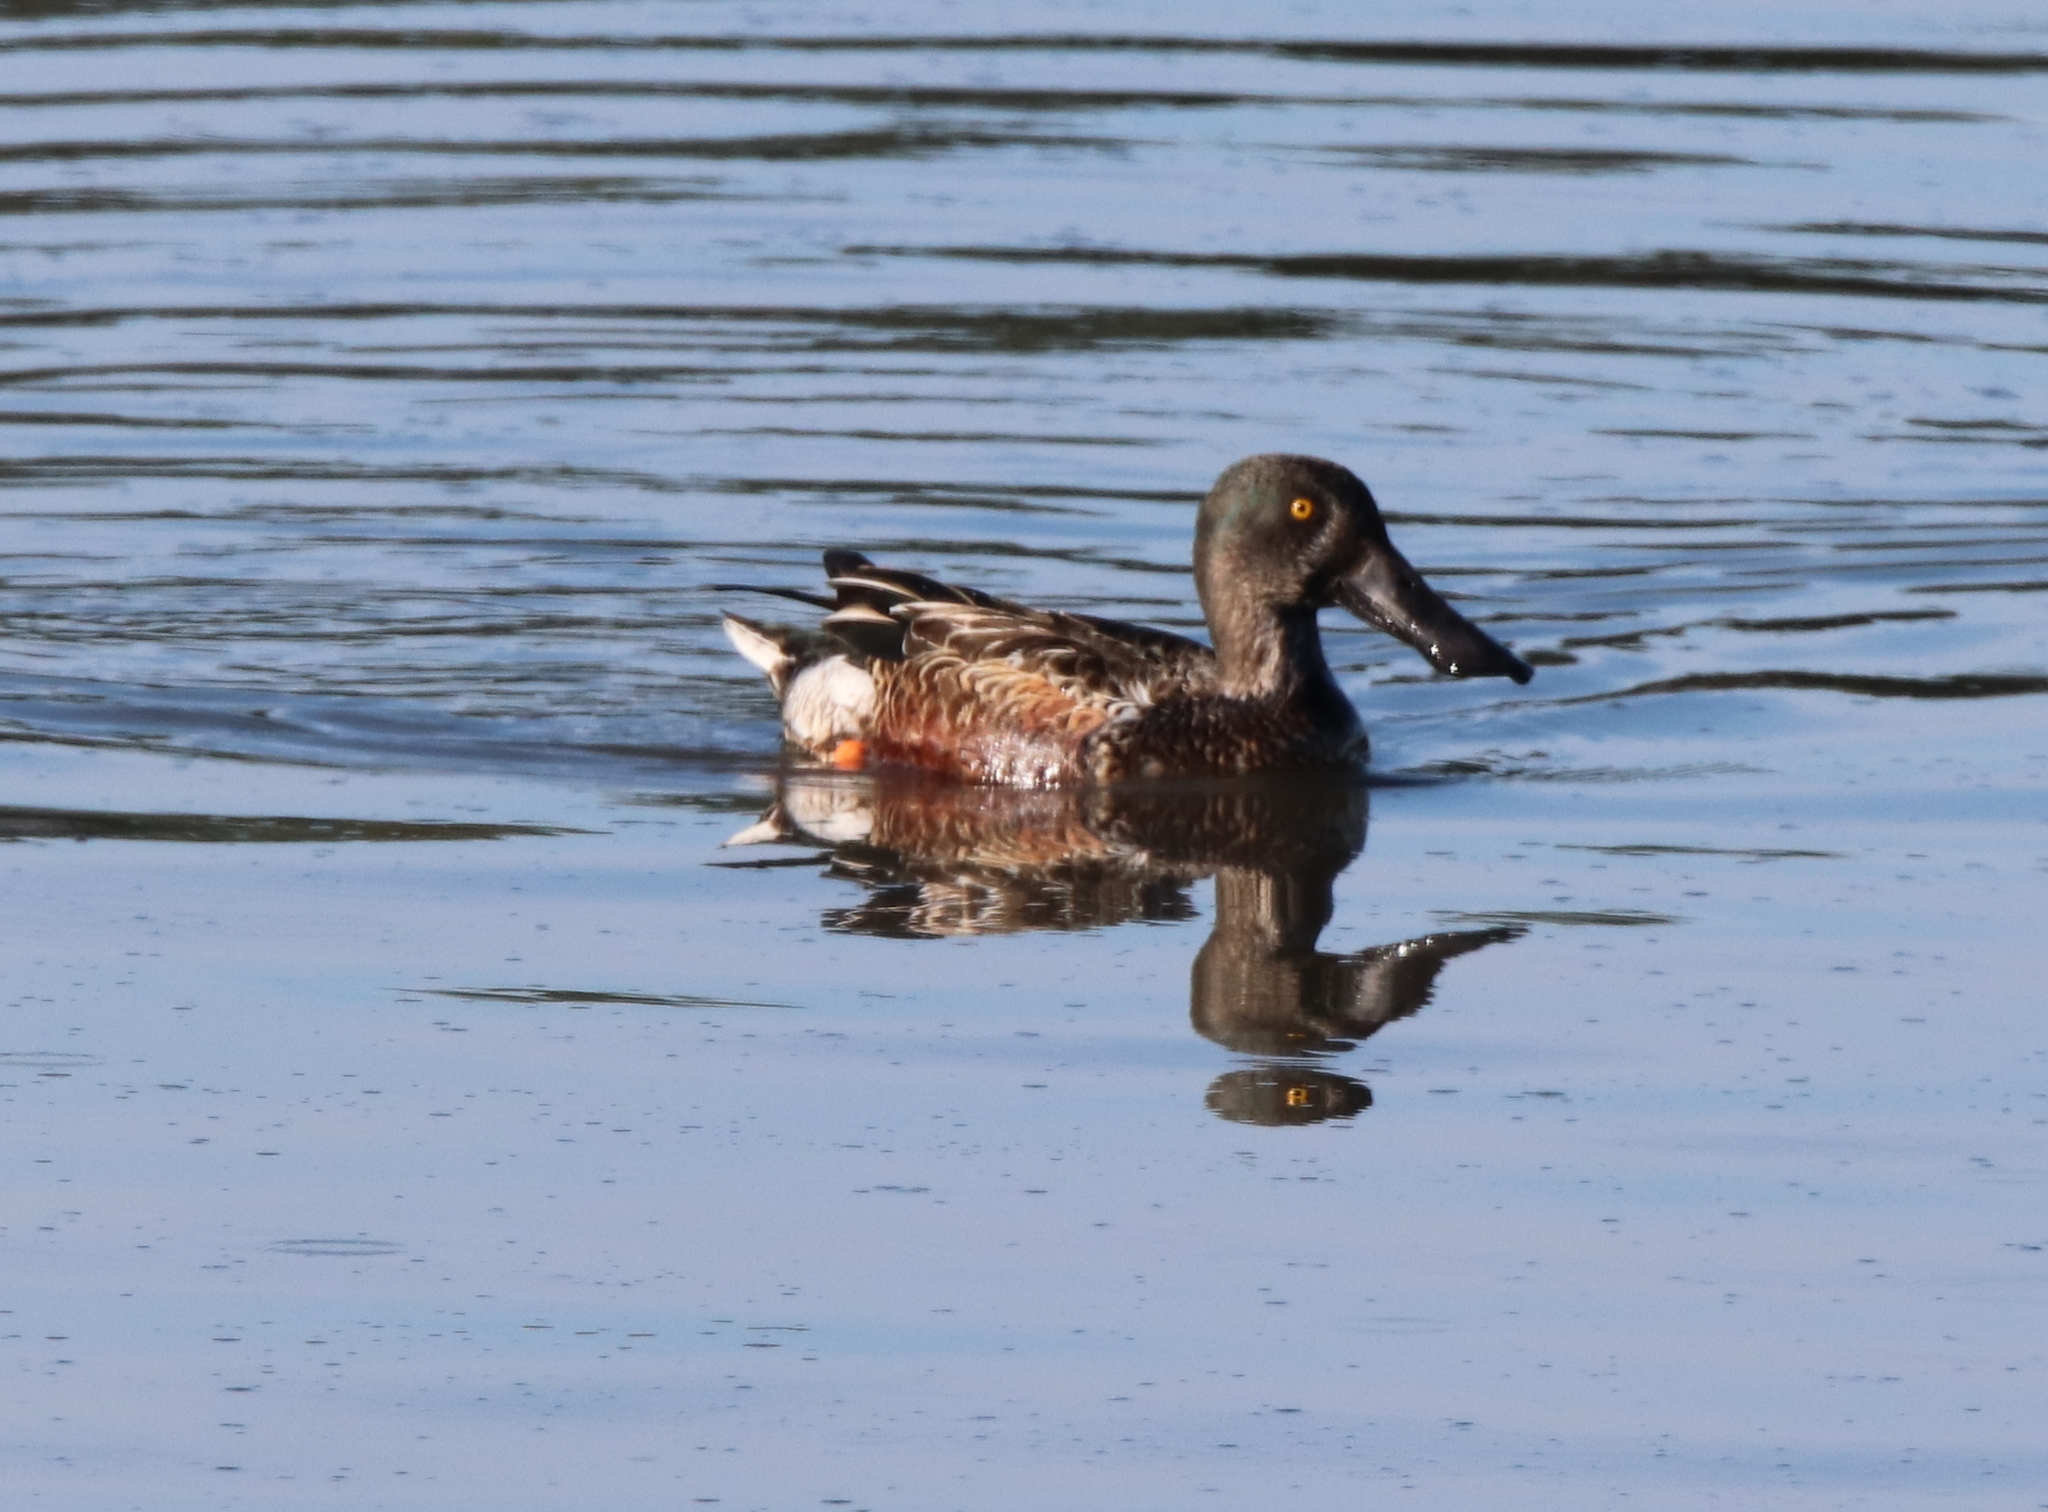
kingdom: Animalia
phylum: Chordata
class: Aves
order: Anseriformes
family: Anatidae
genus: Spatula
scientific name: Spatula clypeata
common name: Northern shoveler
